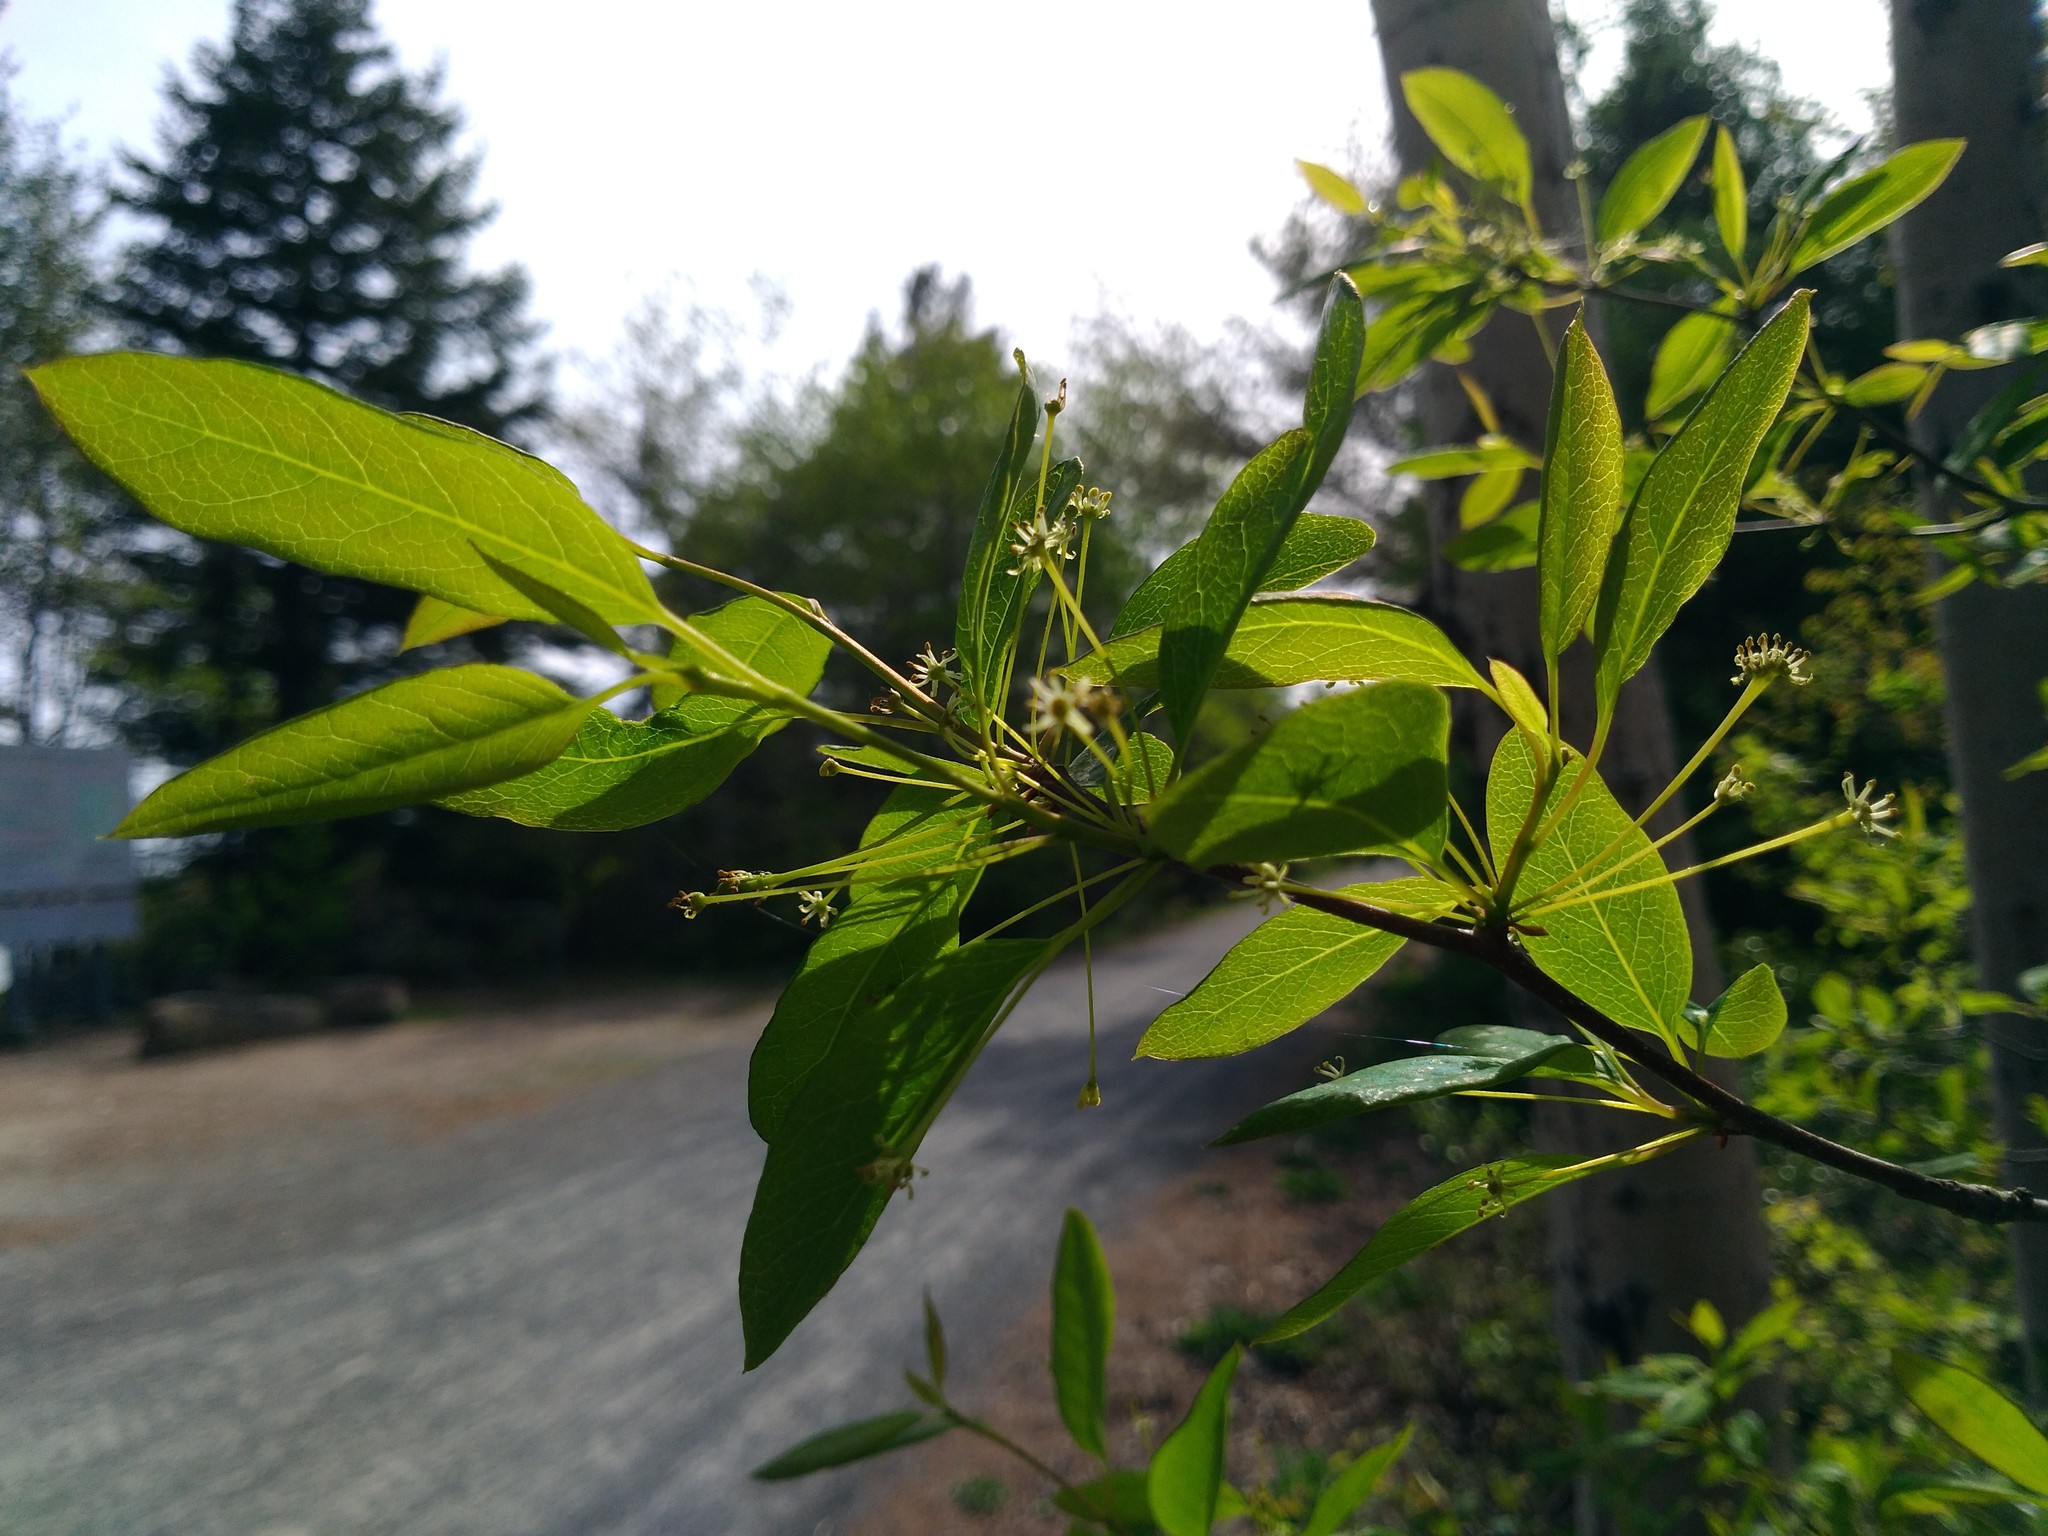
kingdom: Plantae
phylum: Tracheophyta
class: Magnoliopsida
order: Aquifoliales
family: Aquifoliaceae
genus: Ilex
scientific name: Ilex mucronata
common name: Catberry
